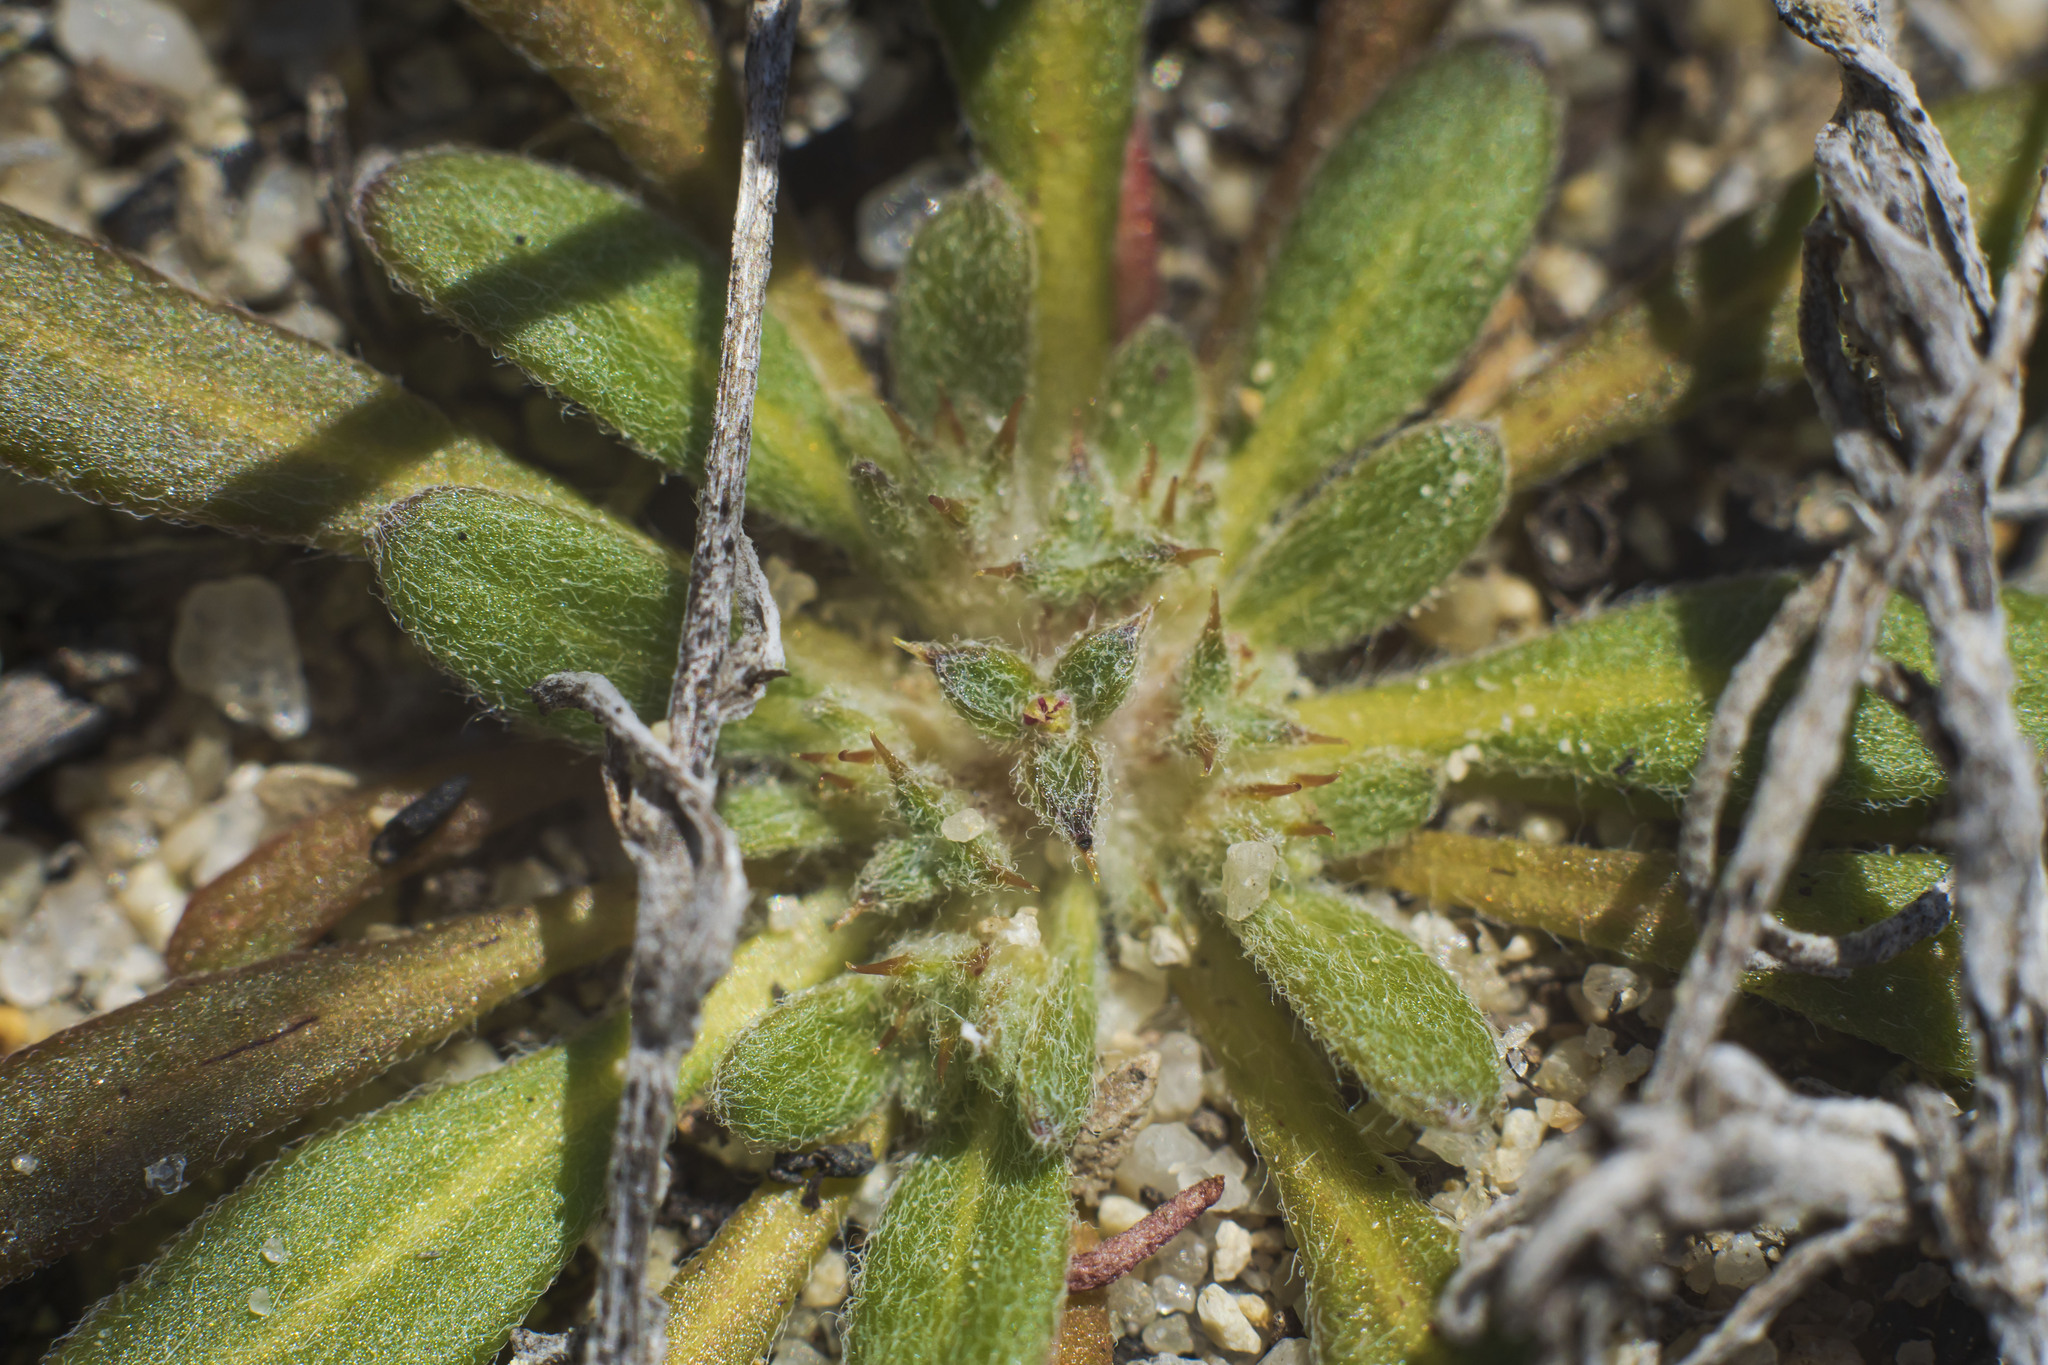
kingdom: Plantae
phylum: Tracheophyta
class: Magnoliopsida
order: Caryophyllales
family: Polygonaceae
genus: Chorizanthe
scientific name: Chorizanthe orcuttiana
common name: Orcutt's spineflower
